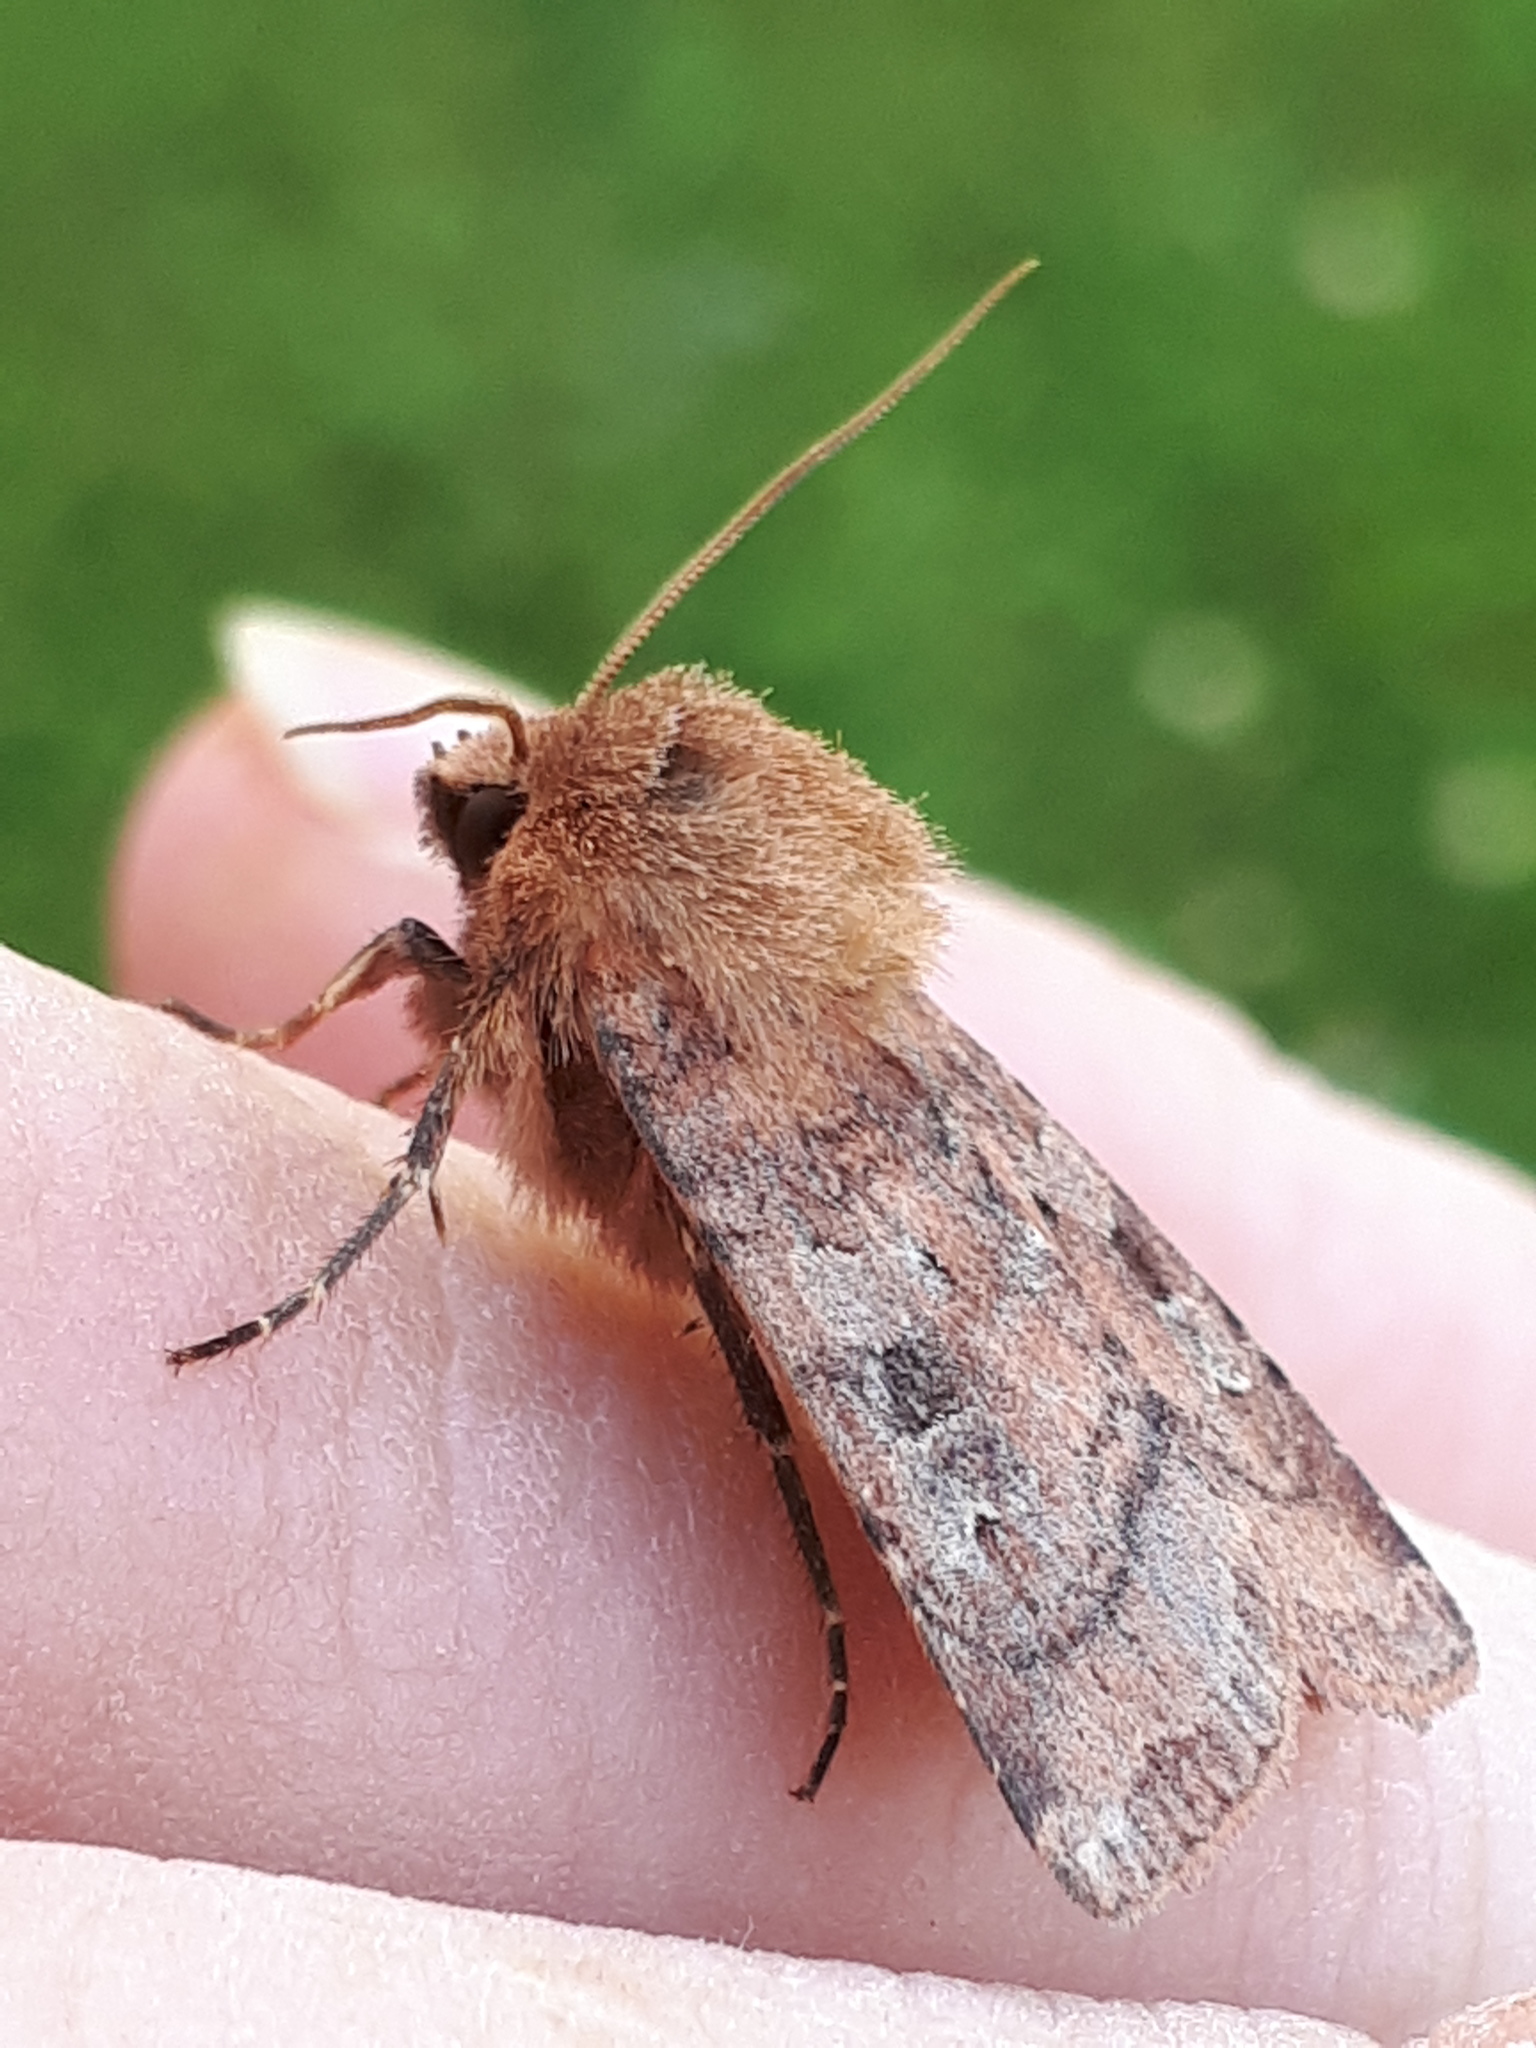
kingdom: Animalia
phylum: Arthropoda
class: Insecta
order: Lepidoptera
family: Noctuidae
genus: Diarsia
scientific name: Diarsia rubi
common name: Small square-spot
